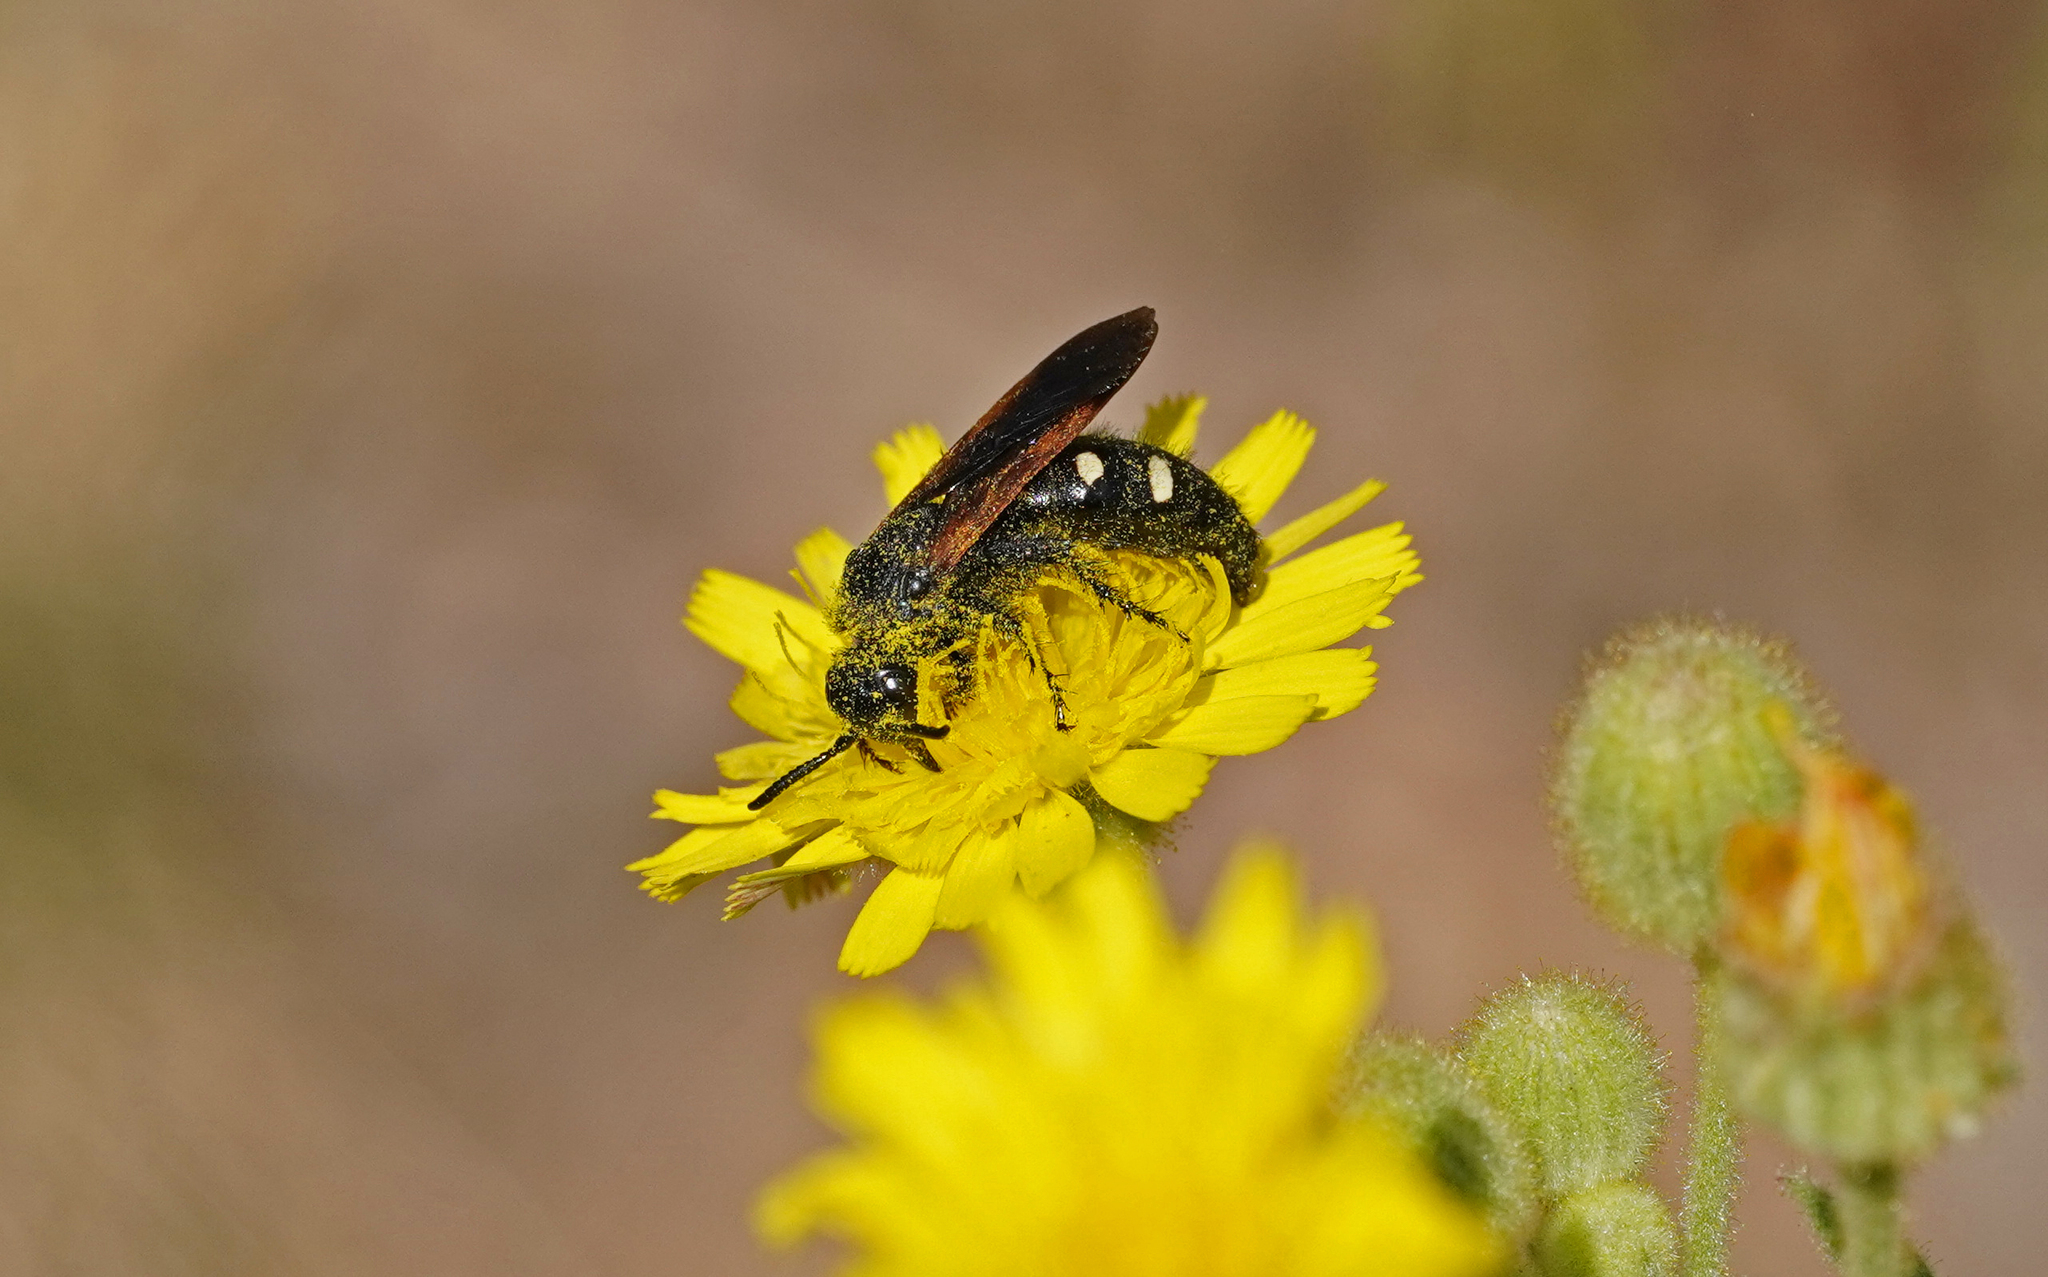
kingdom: Animalia
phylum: Arthropoda
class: Insecta
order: Hymenoptera
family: Vespidae
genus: Vespa
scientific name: Vespa sexmaculata
